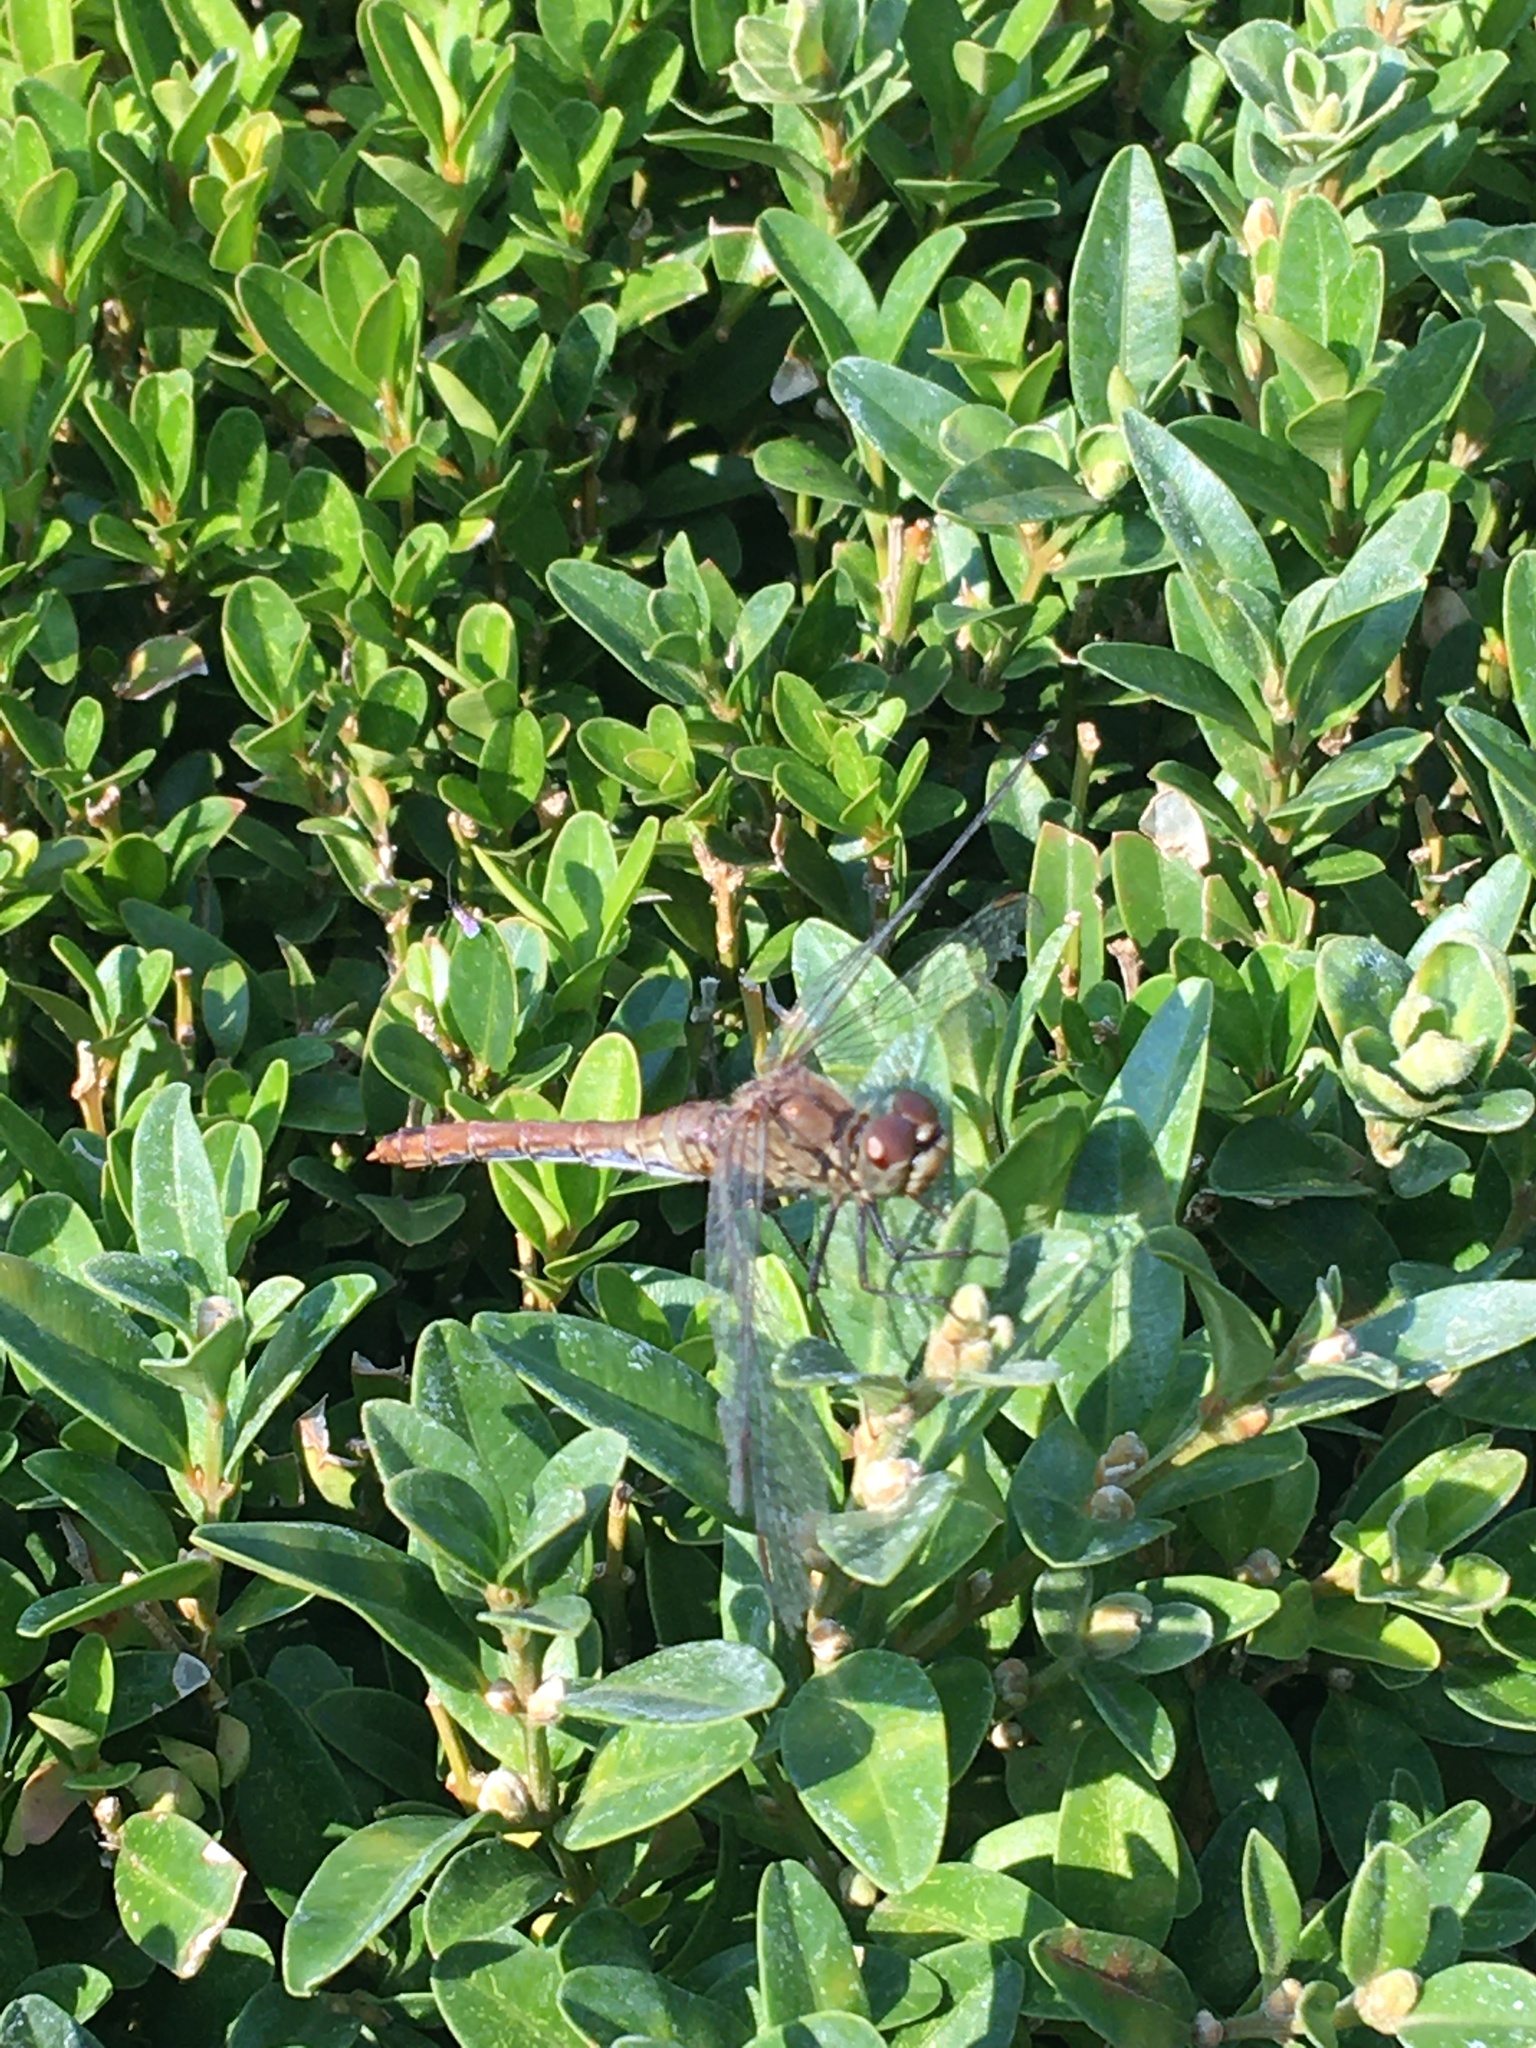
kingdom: Animalia
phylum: Arthropoda
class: Insecta
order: Odonata
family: Libellulidae
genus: Sympetrum
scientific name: Sympetrum sanguineum
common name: Ruddy darter
